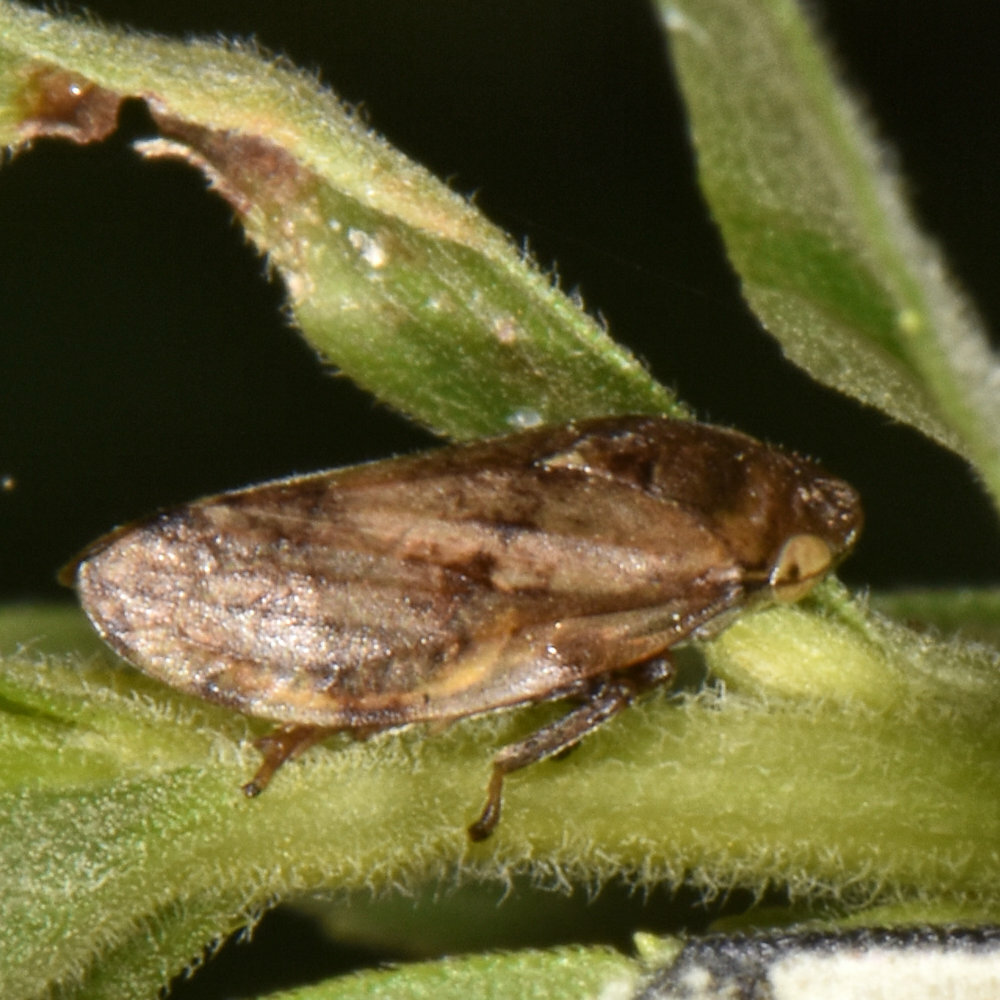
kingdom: Animalia
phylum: Arthropoda
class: Insecta
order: Hemiptera
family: Aphrophoridae
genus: Philaenus
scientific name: Philaenus spumarius
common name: Meadow spittlebug
